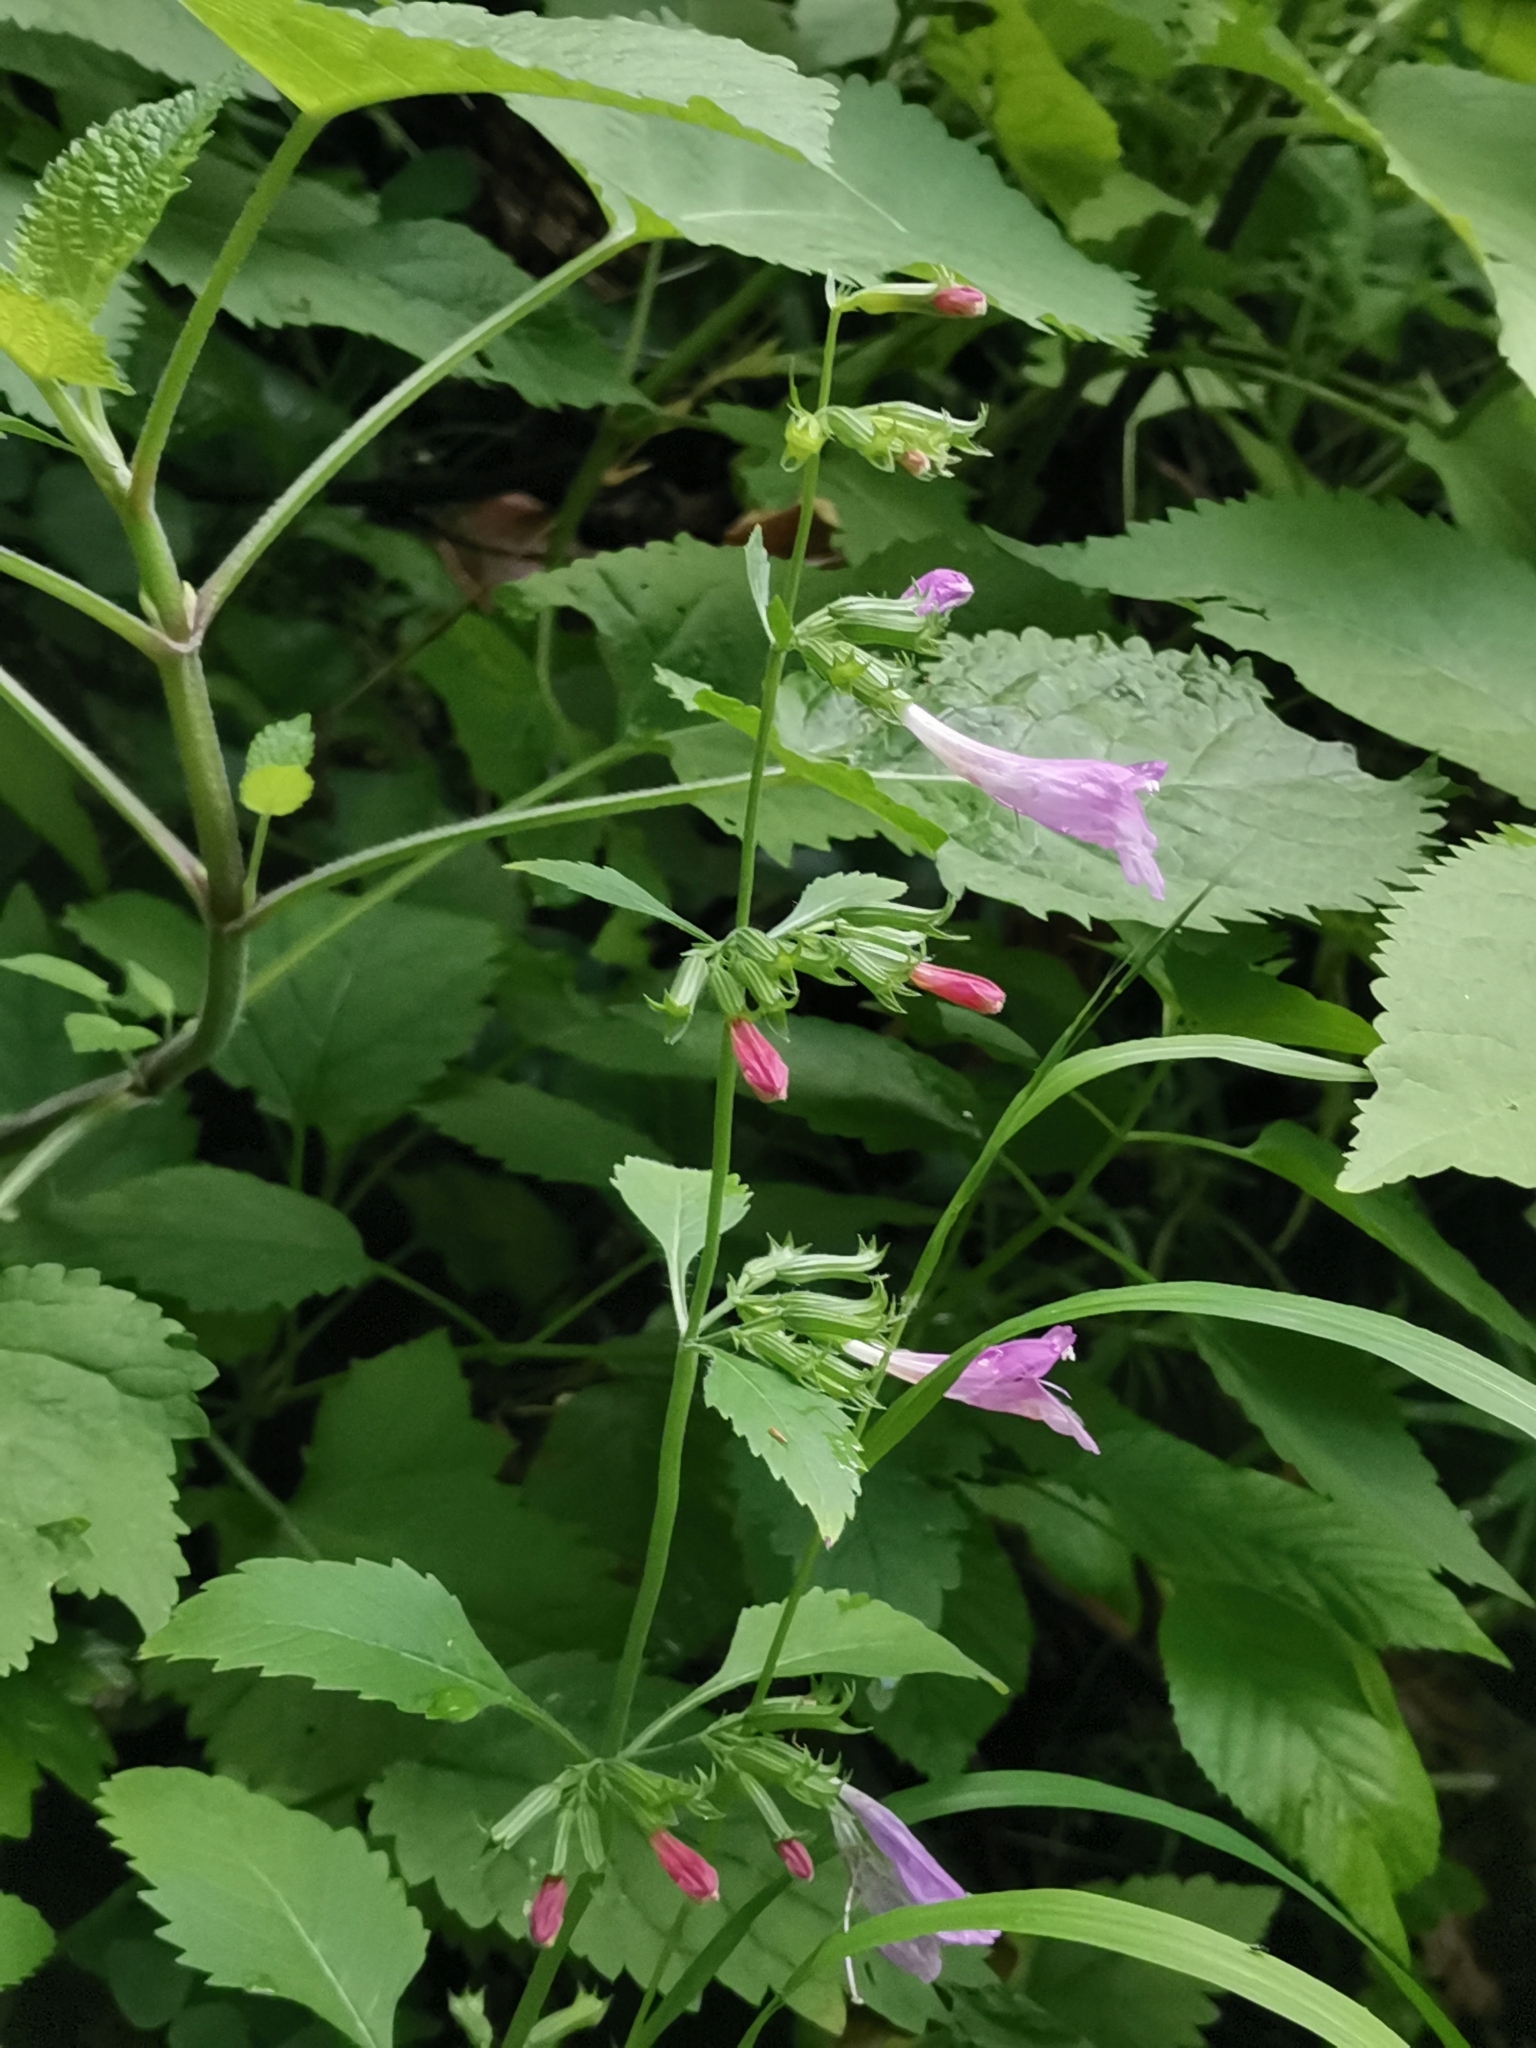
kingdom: Plantae
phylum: Tracheophyta
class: Magnoliopsida
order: Lamiales
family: Lamiaceae
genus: Clinopodium
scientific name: Clinopodium grandiflorum
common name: Greater calamint
